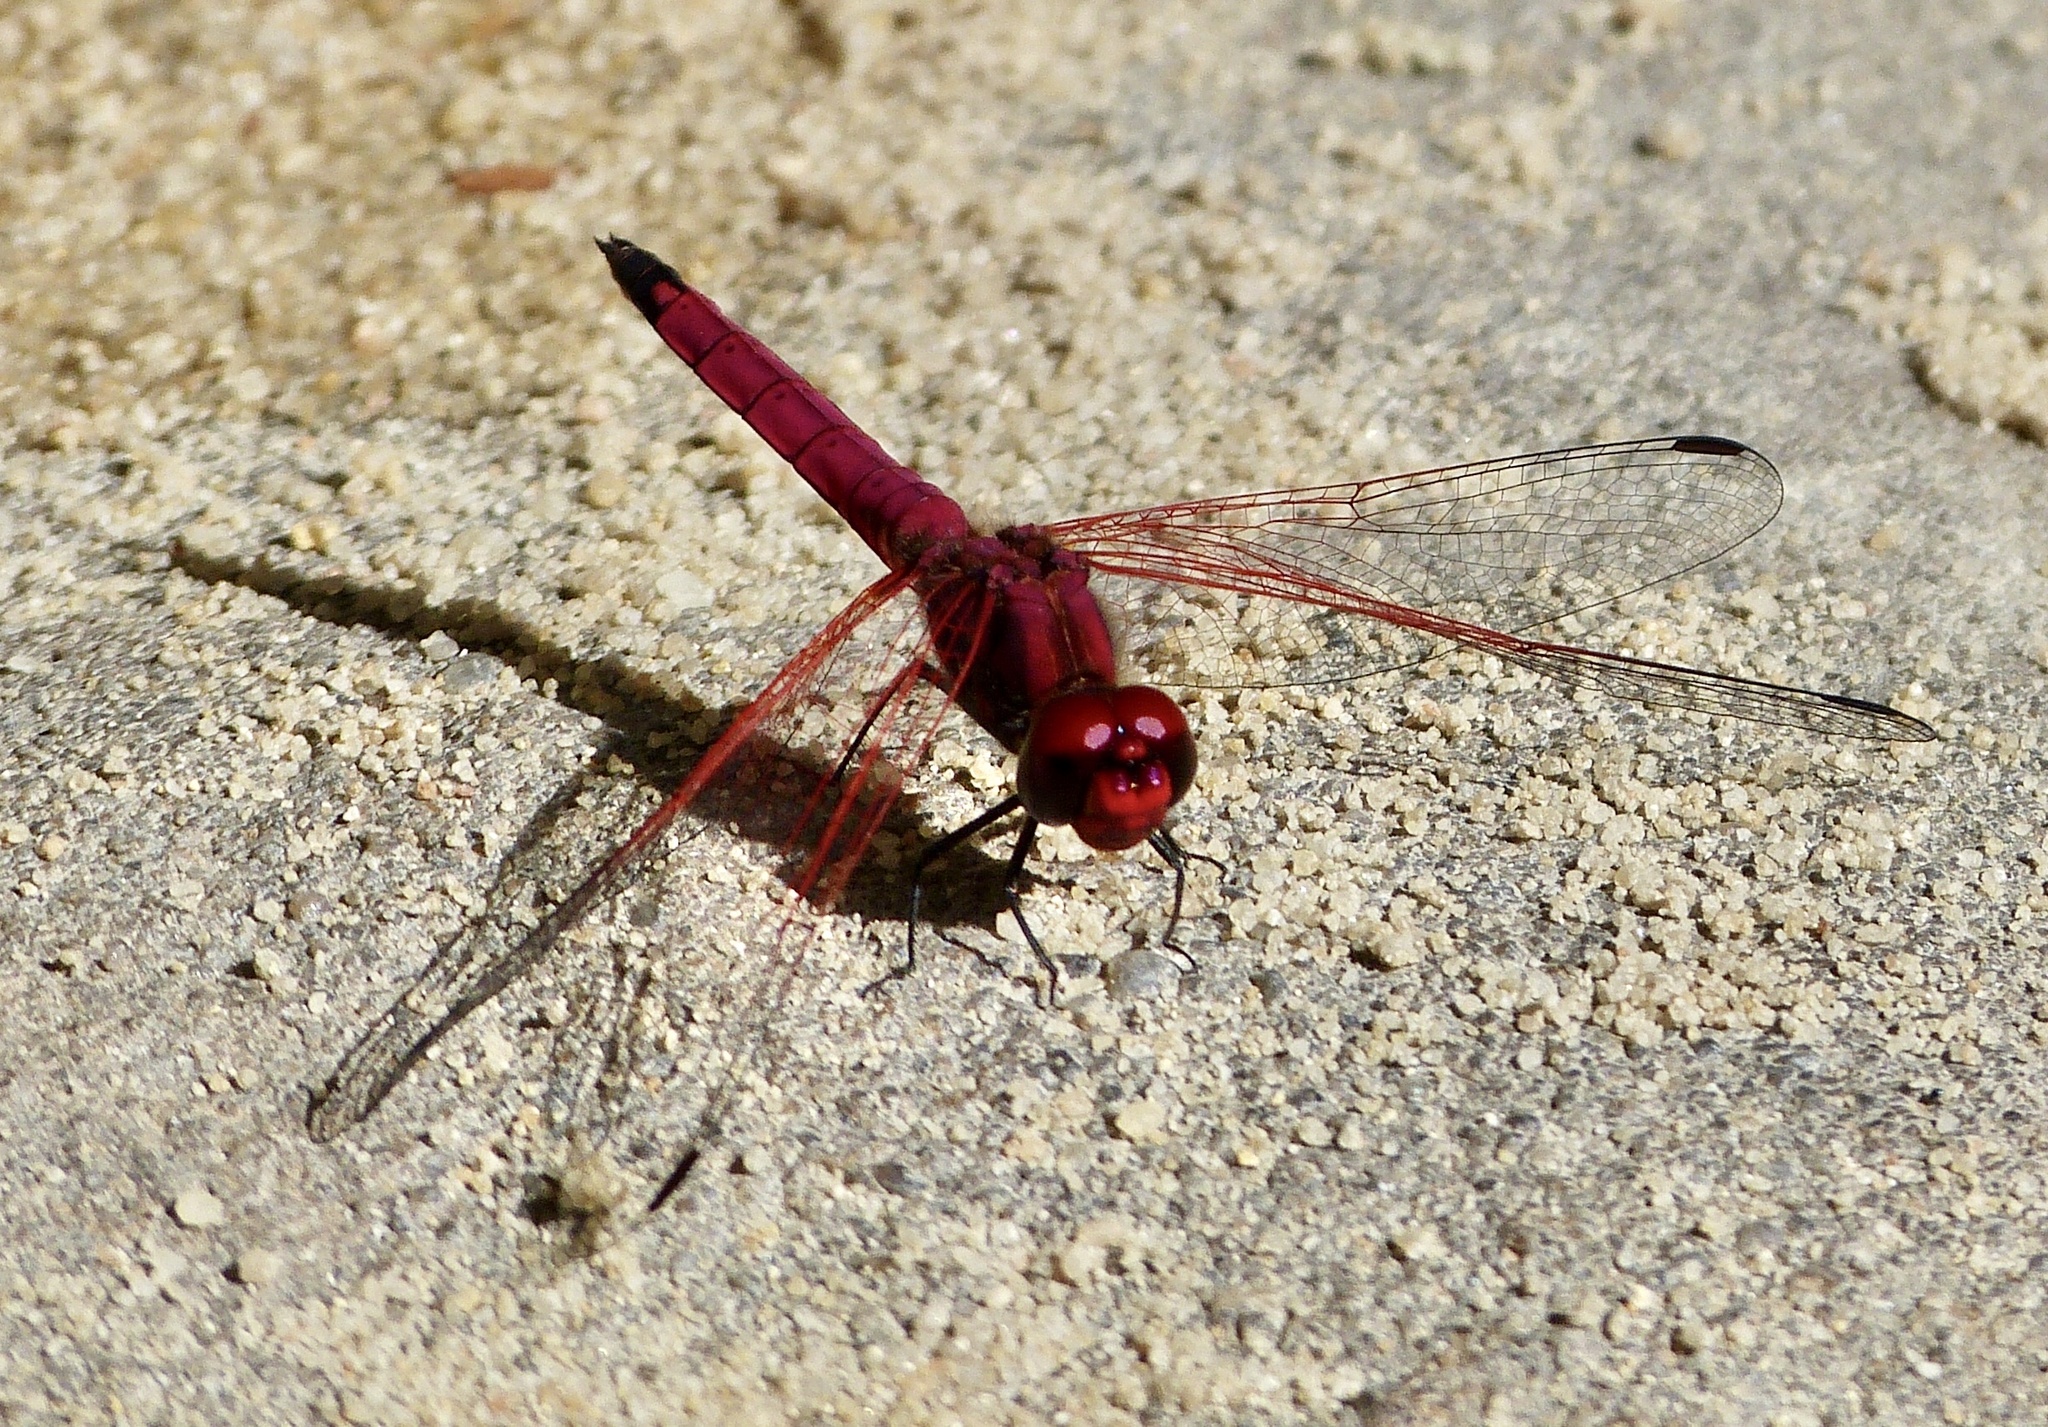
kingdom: Animalia
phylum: Arthropoda
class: Insecta
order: Odonata
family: Libellulidae
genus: Trithemis
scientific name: Trithemis selika
